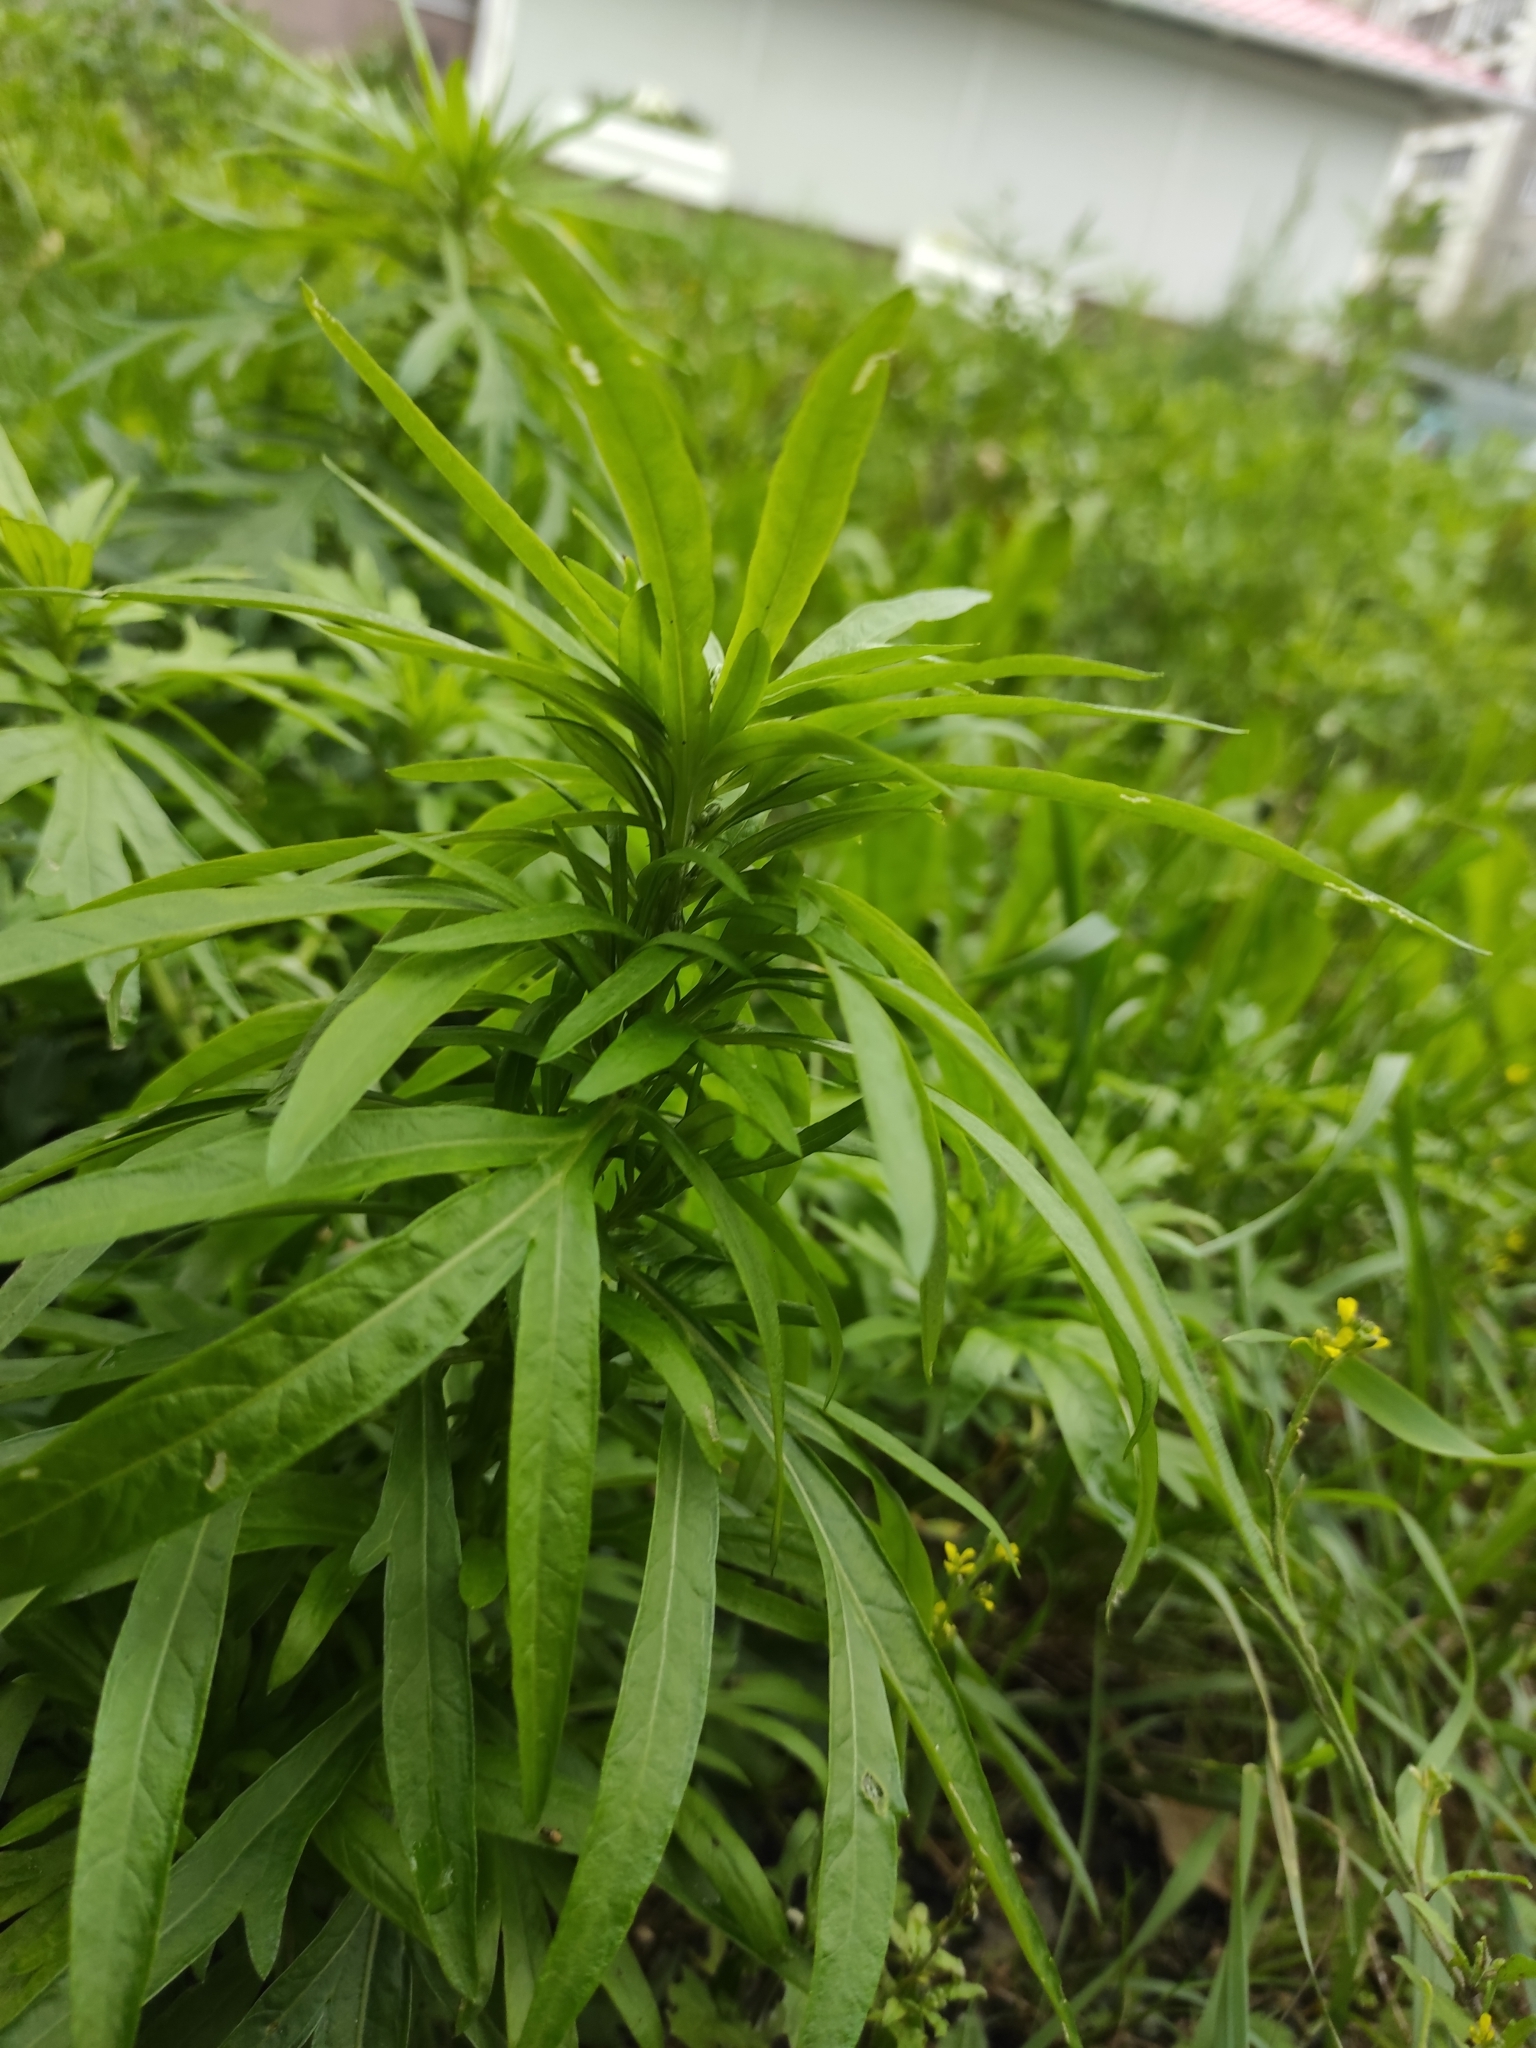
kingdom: Plantae
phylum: Tracheophyta
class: Magnoliopsida
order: Asterales
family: Asteraceae
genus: Artemisia
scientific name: Artemisia vulgaris
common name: Mugwort
